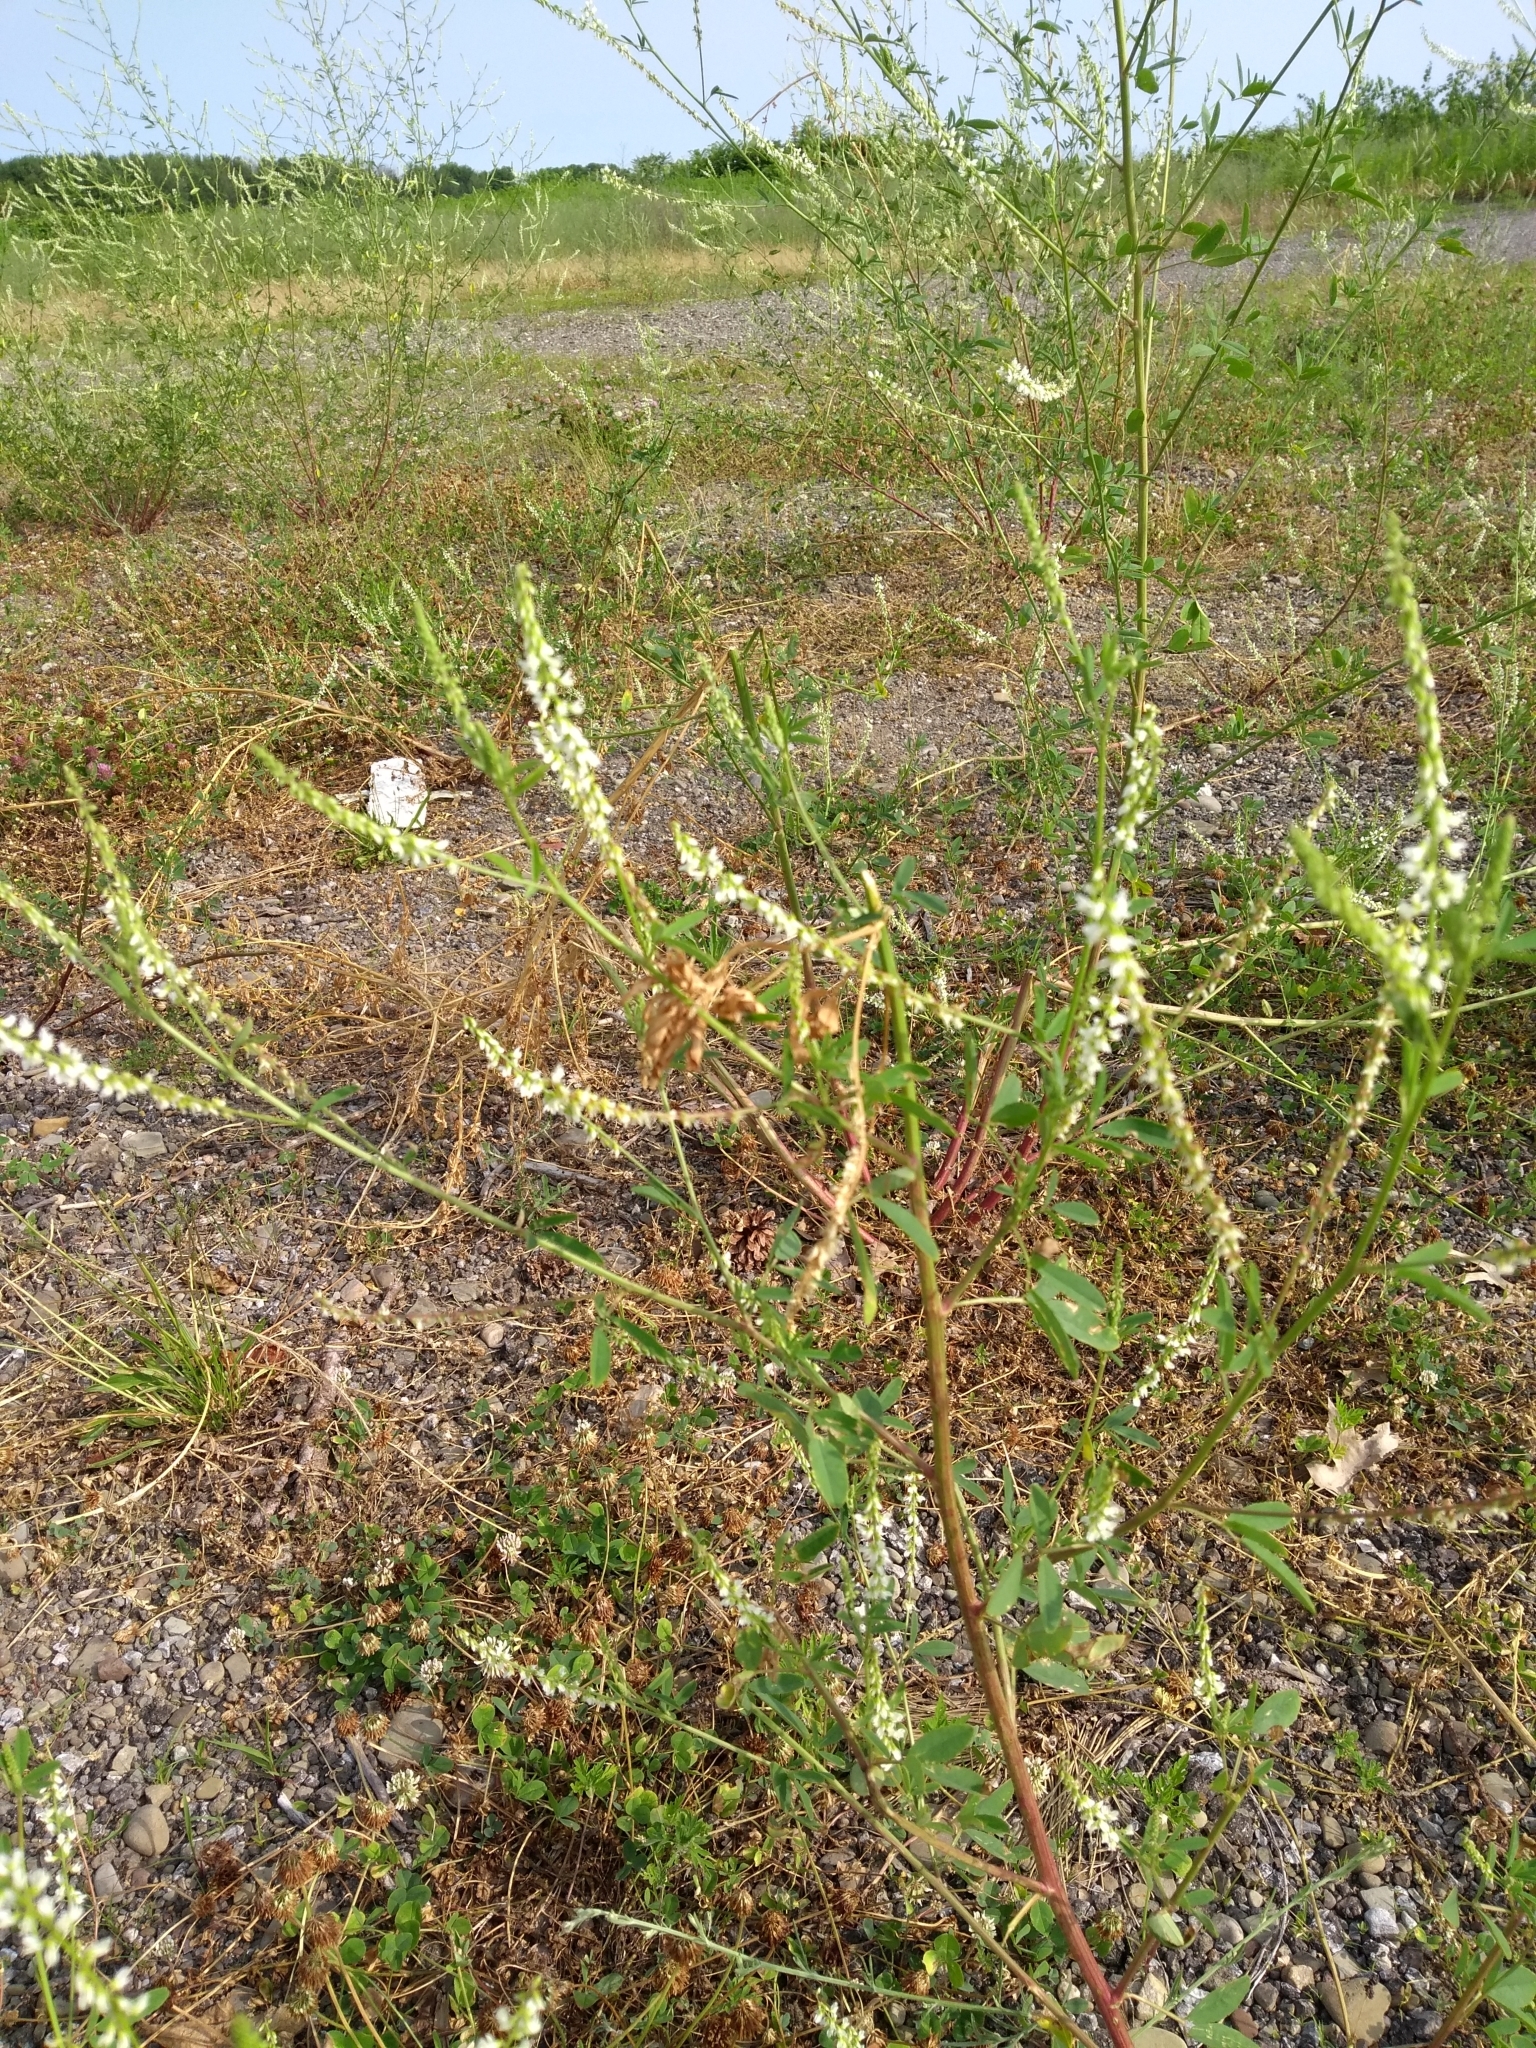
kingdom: Plantae
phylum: Tracheophyta
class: Magnoliopsida
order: Fabales
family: Fabaceae
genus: Melilotus
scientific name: Melilotus albus
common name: White melilot
